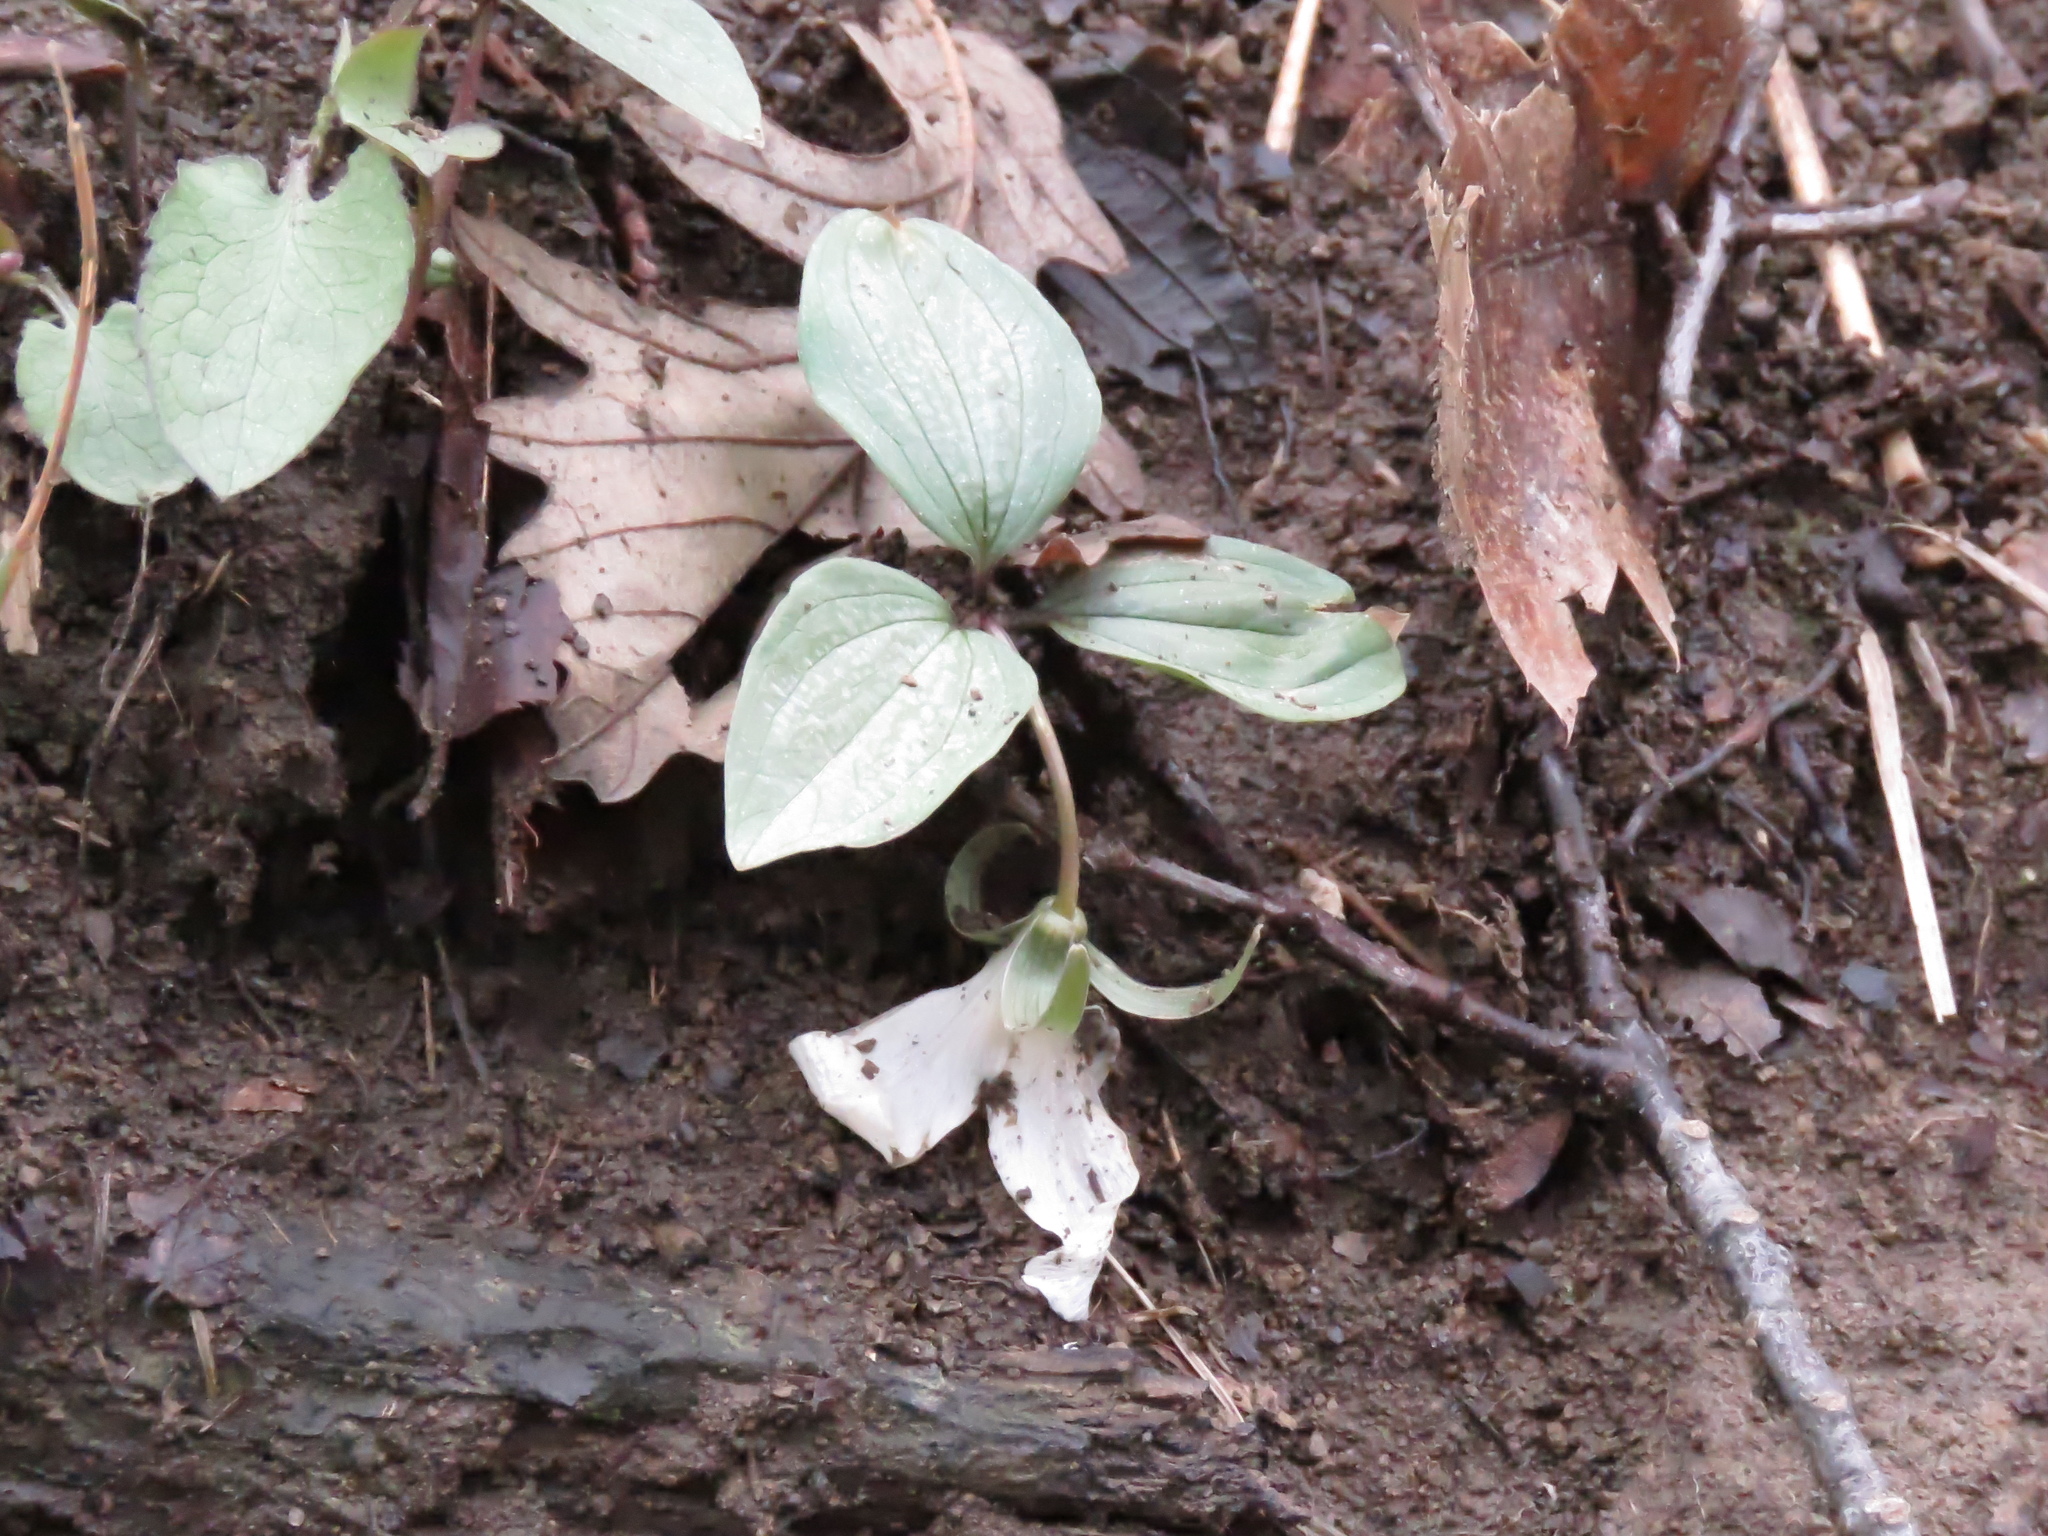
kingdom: Plantae
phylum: Tracheophyta
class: Liliopsida
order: Liliales
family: Melanthiaceae
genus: Trillium
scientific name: Trillium nivale
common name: Dwarf white trillium
